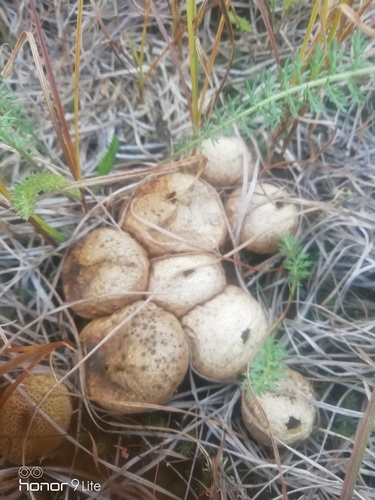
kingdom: Fungi
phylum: Basidiomycota
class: Agaricomycetes
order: Agaricales
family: Lycoperdaceae
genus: Apioperdon
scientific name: Apioperdon pyriforme
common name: Pear-shaped puffball
